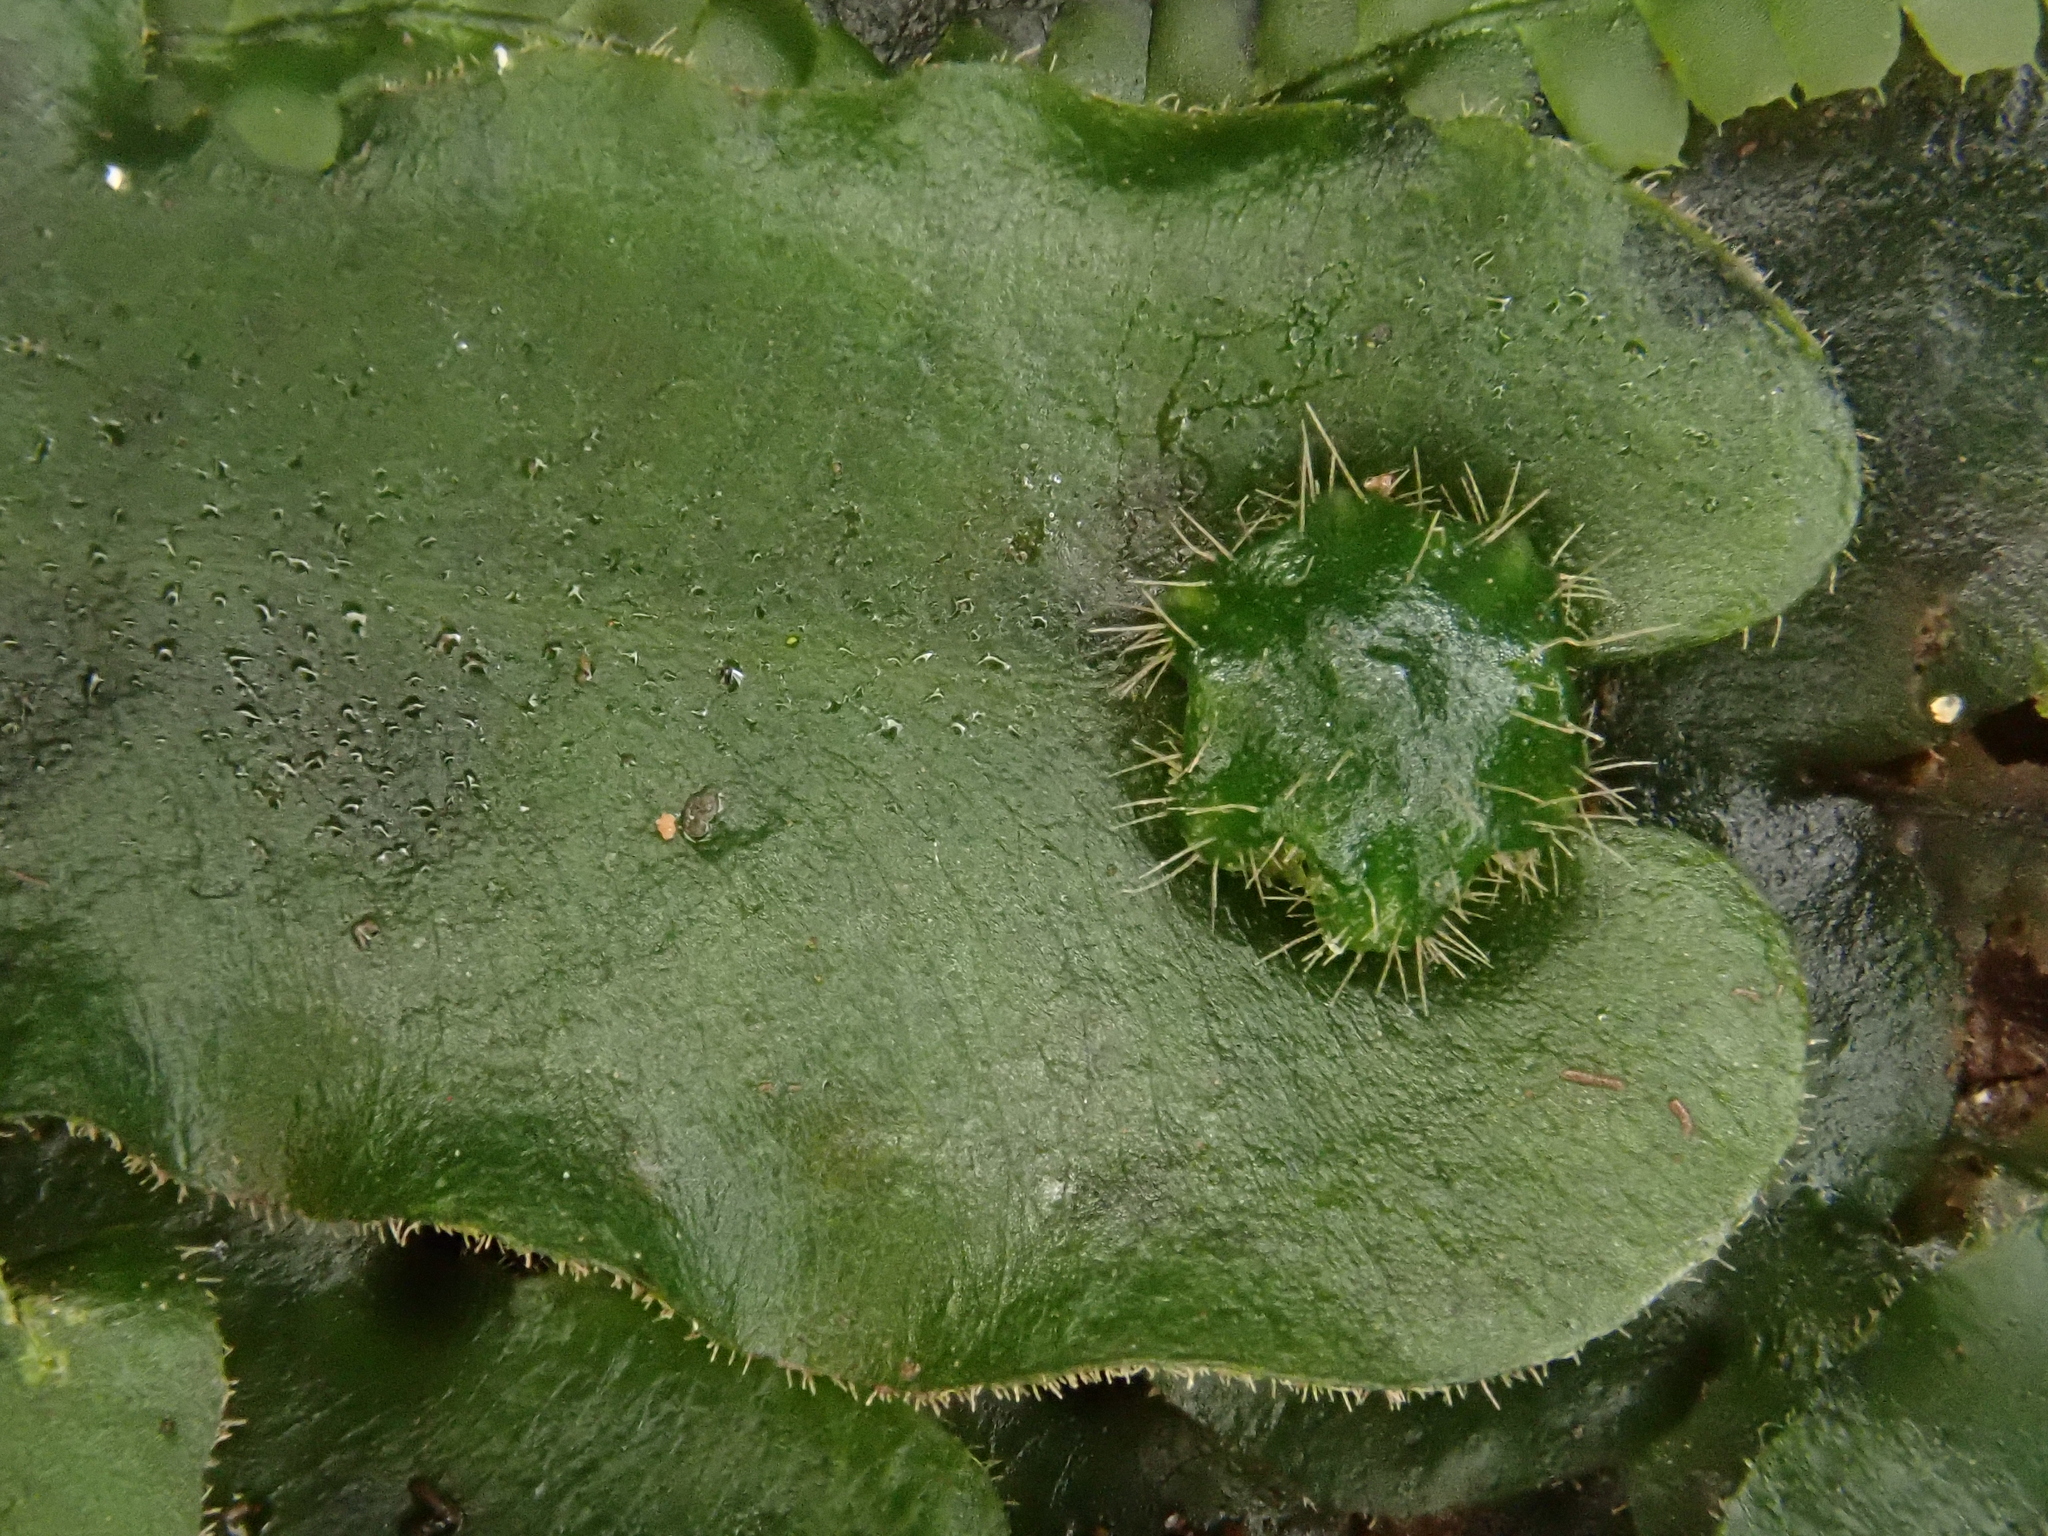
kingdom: Plantae
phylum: Marchantiophyta
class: Marchantiopsida
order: Marchantiales
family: Dumortieraceae
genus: Dumortiera
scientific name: Dumortiera hirsuta
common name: Dumortier's liverwort
